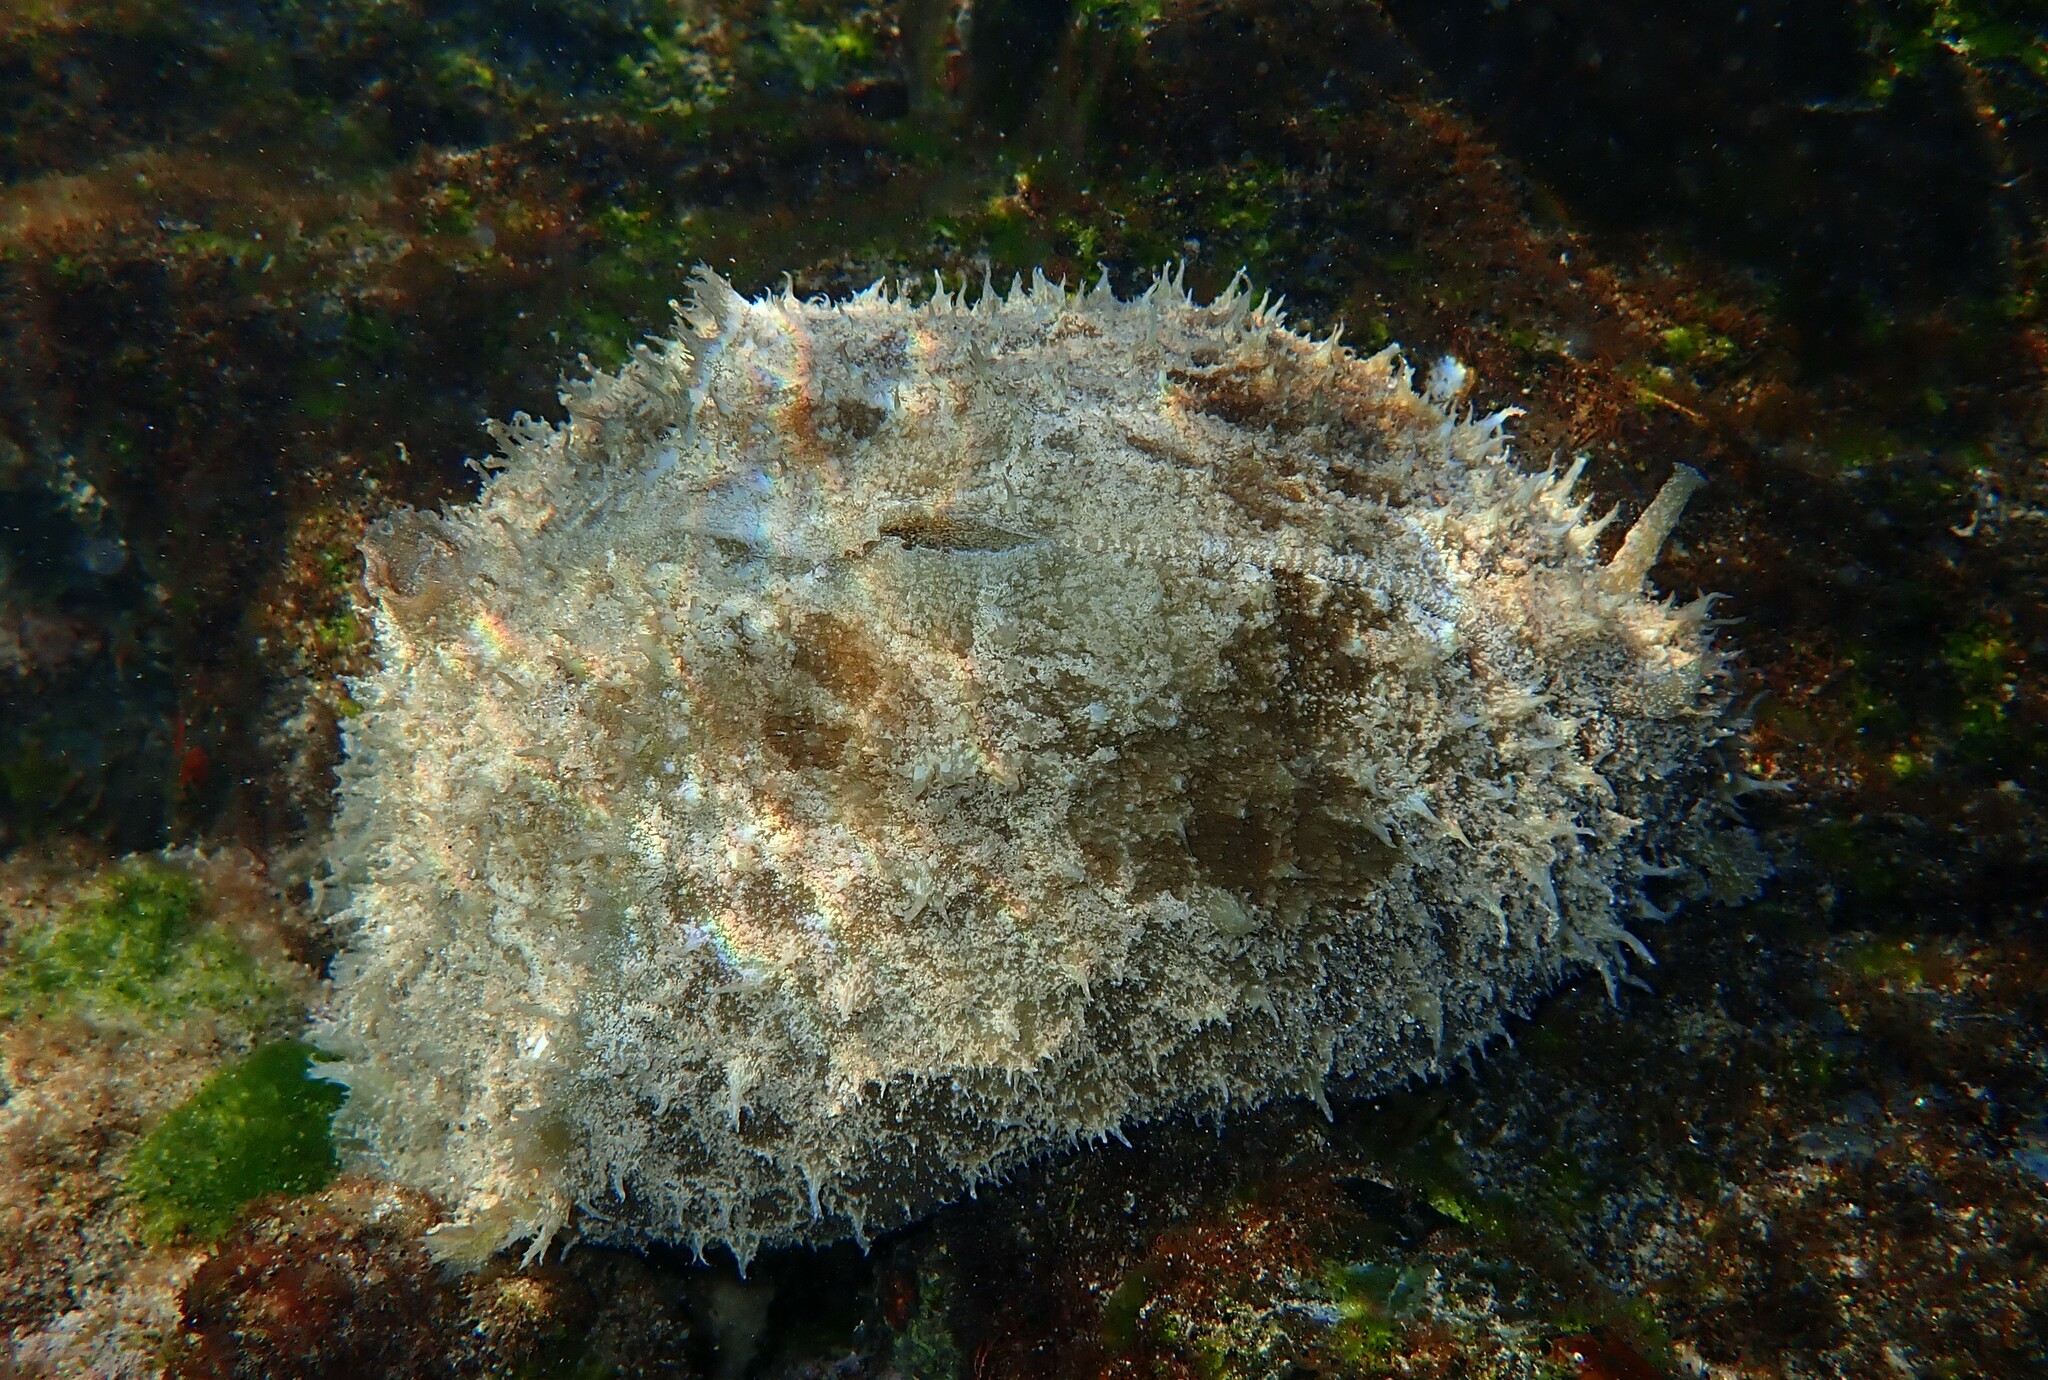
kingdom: Animalia
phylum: Mollusca
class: Gastropoda
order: Aplysiida
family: Aplysiidae
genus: Dolabella
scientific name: Dolabella auricularia
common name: Blunt-end seahare
